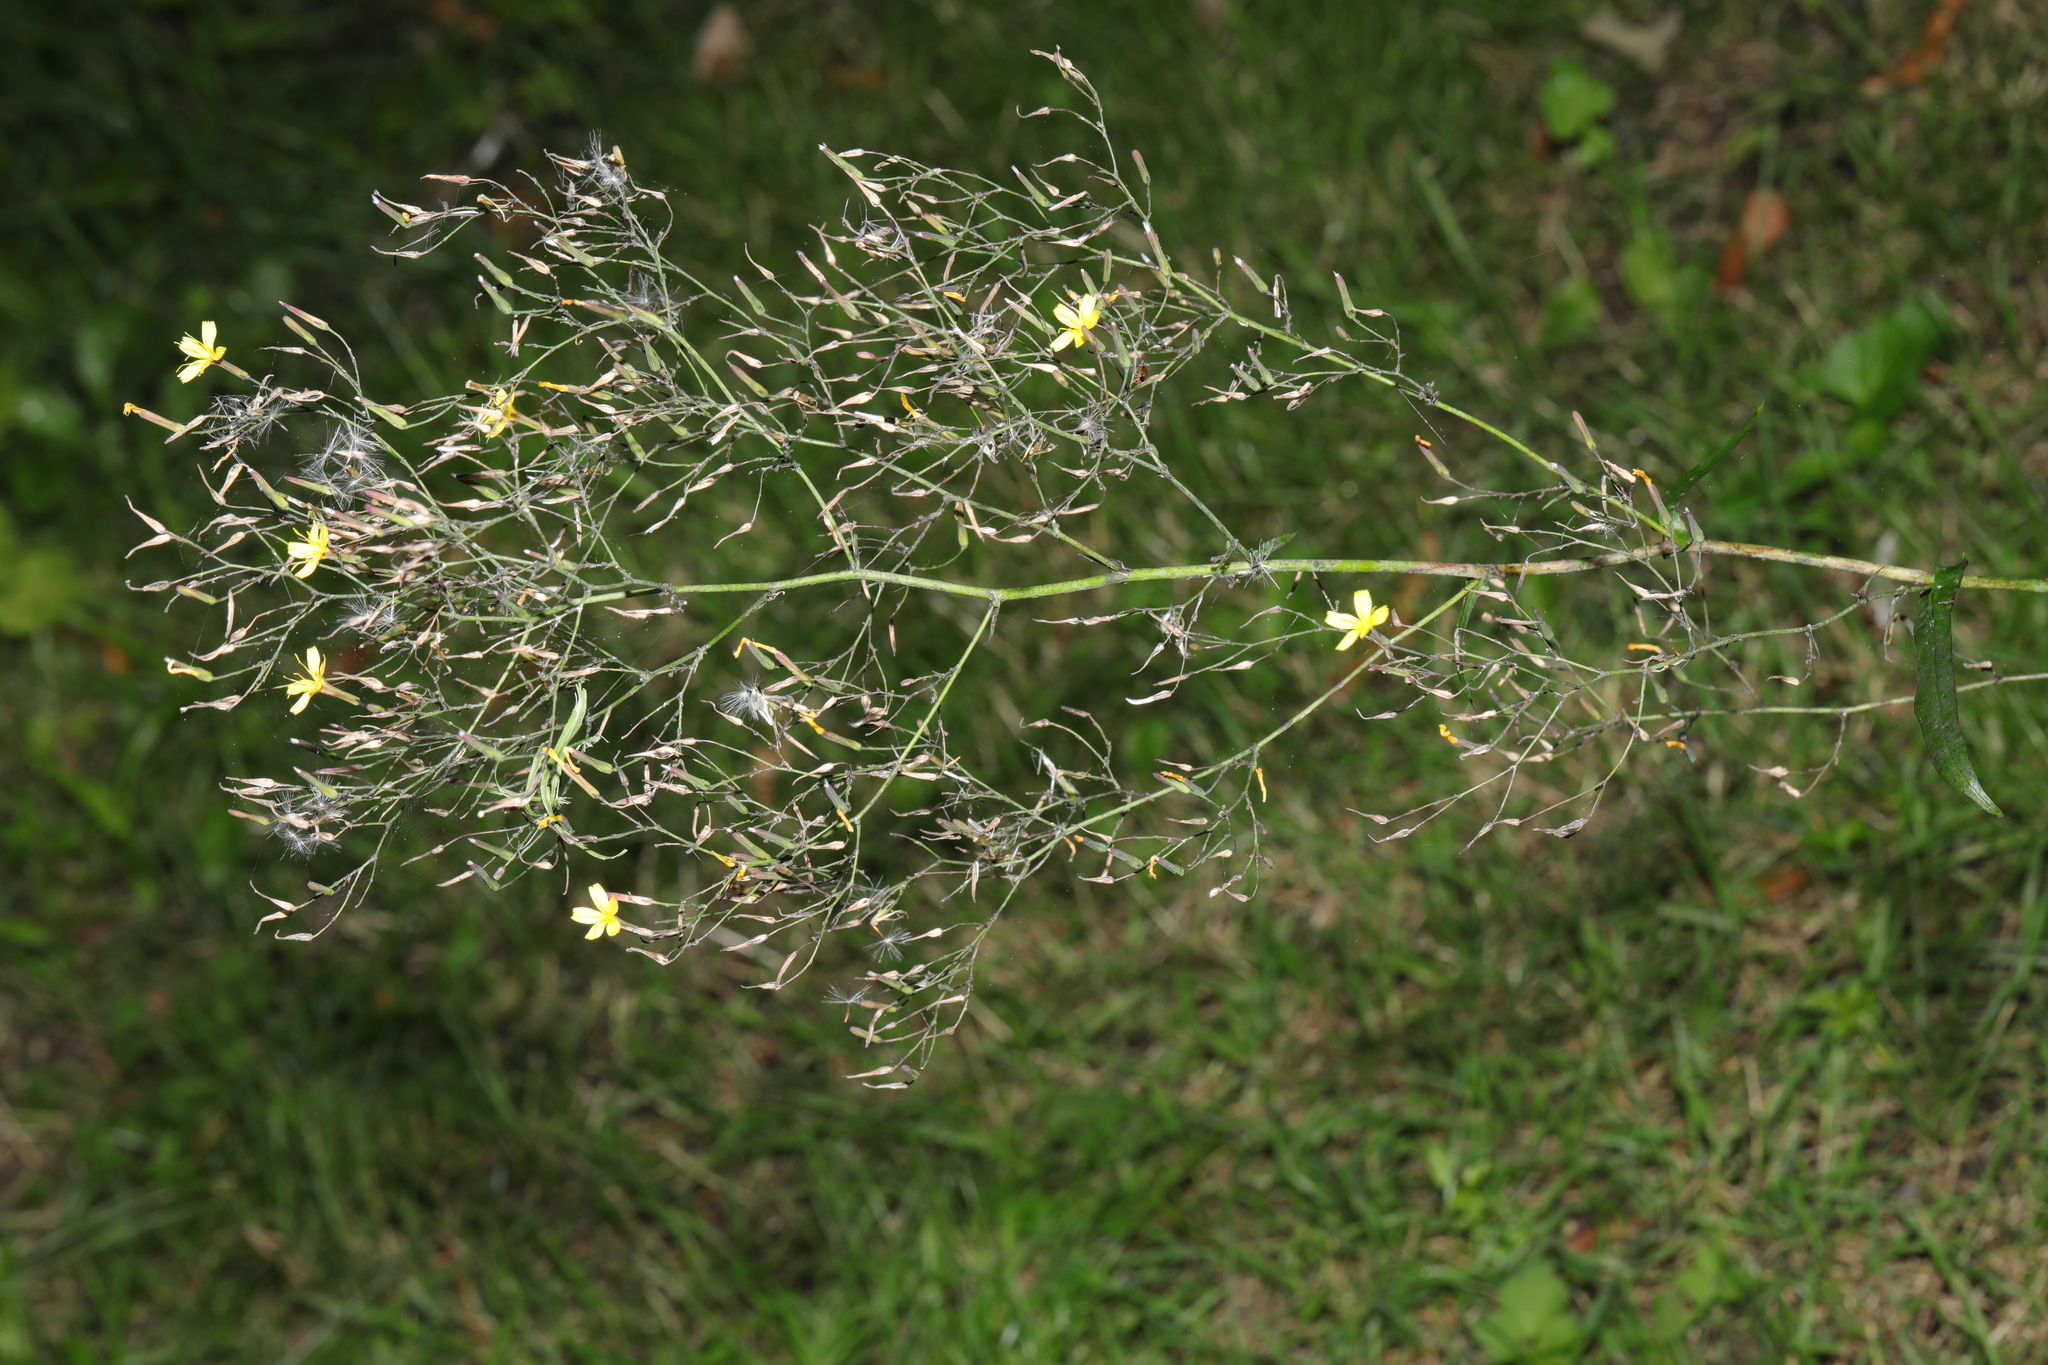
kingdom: Plantae
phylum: Tracheophyta
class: Magnoliopsida
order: Asterales
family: Asteraceae
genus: Mycelis
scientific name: Mycelis muralis
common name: Wall lettuce
